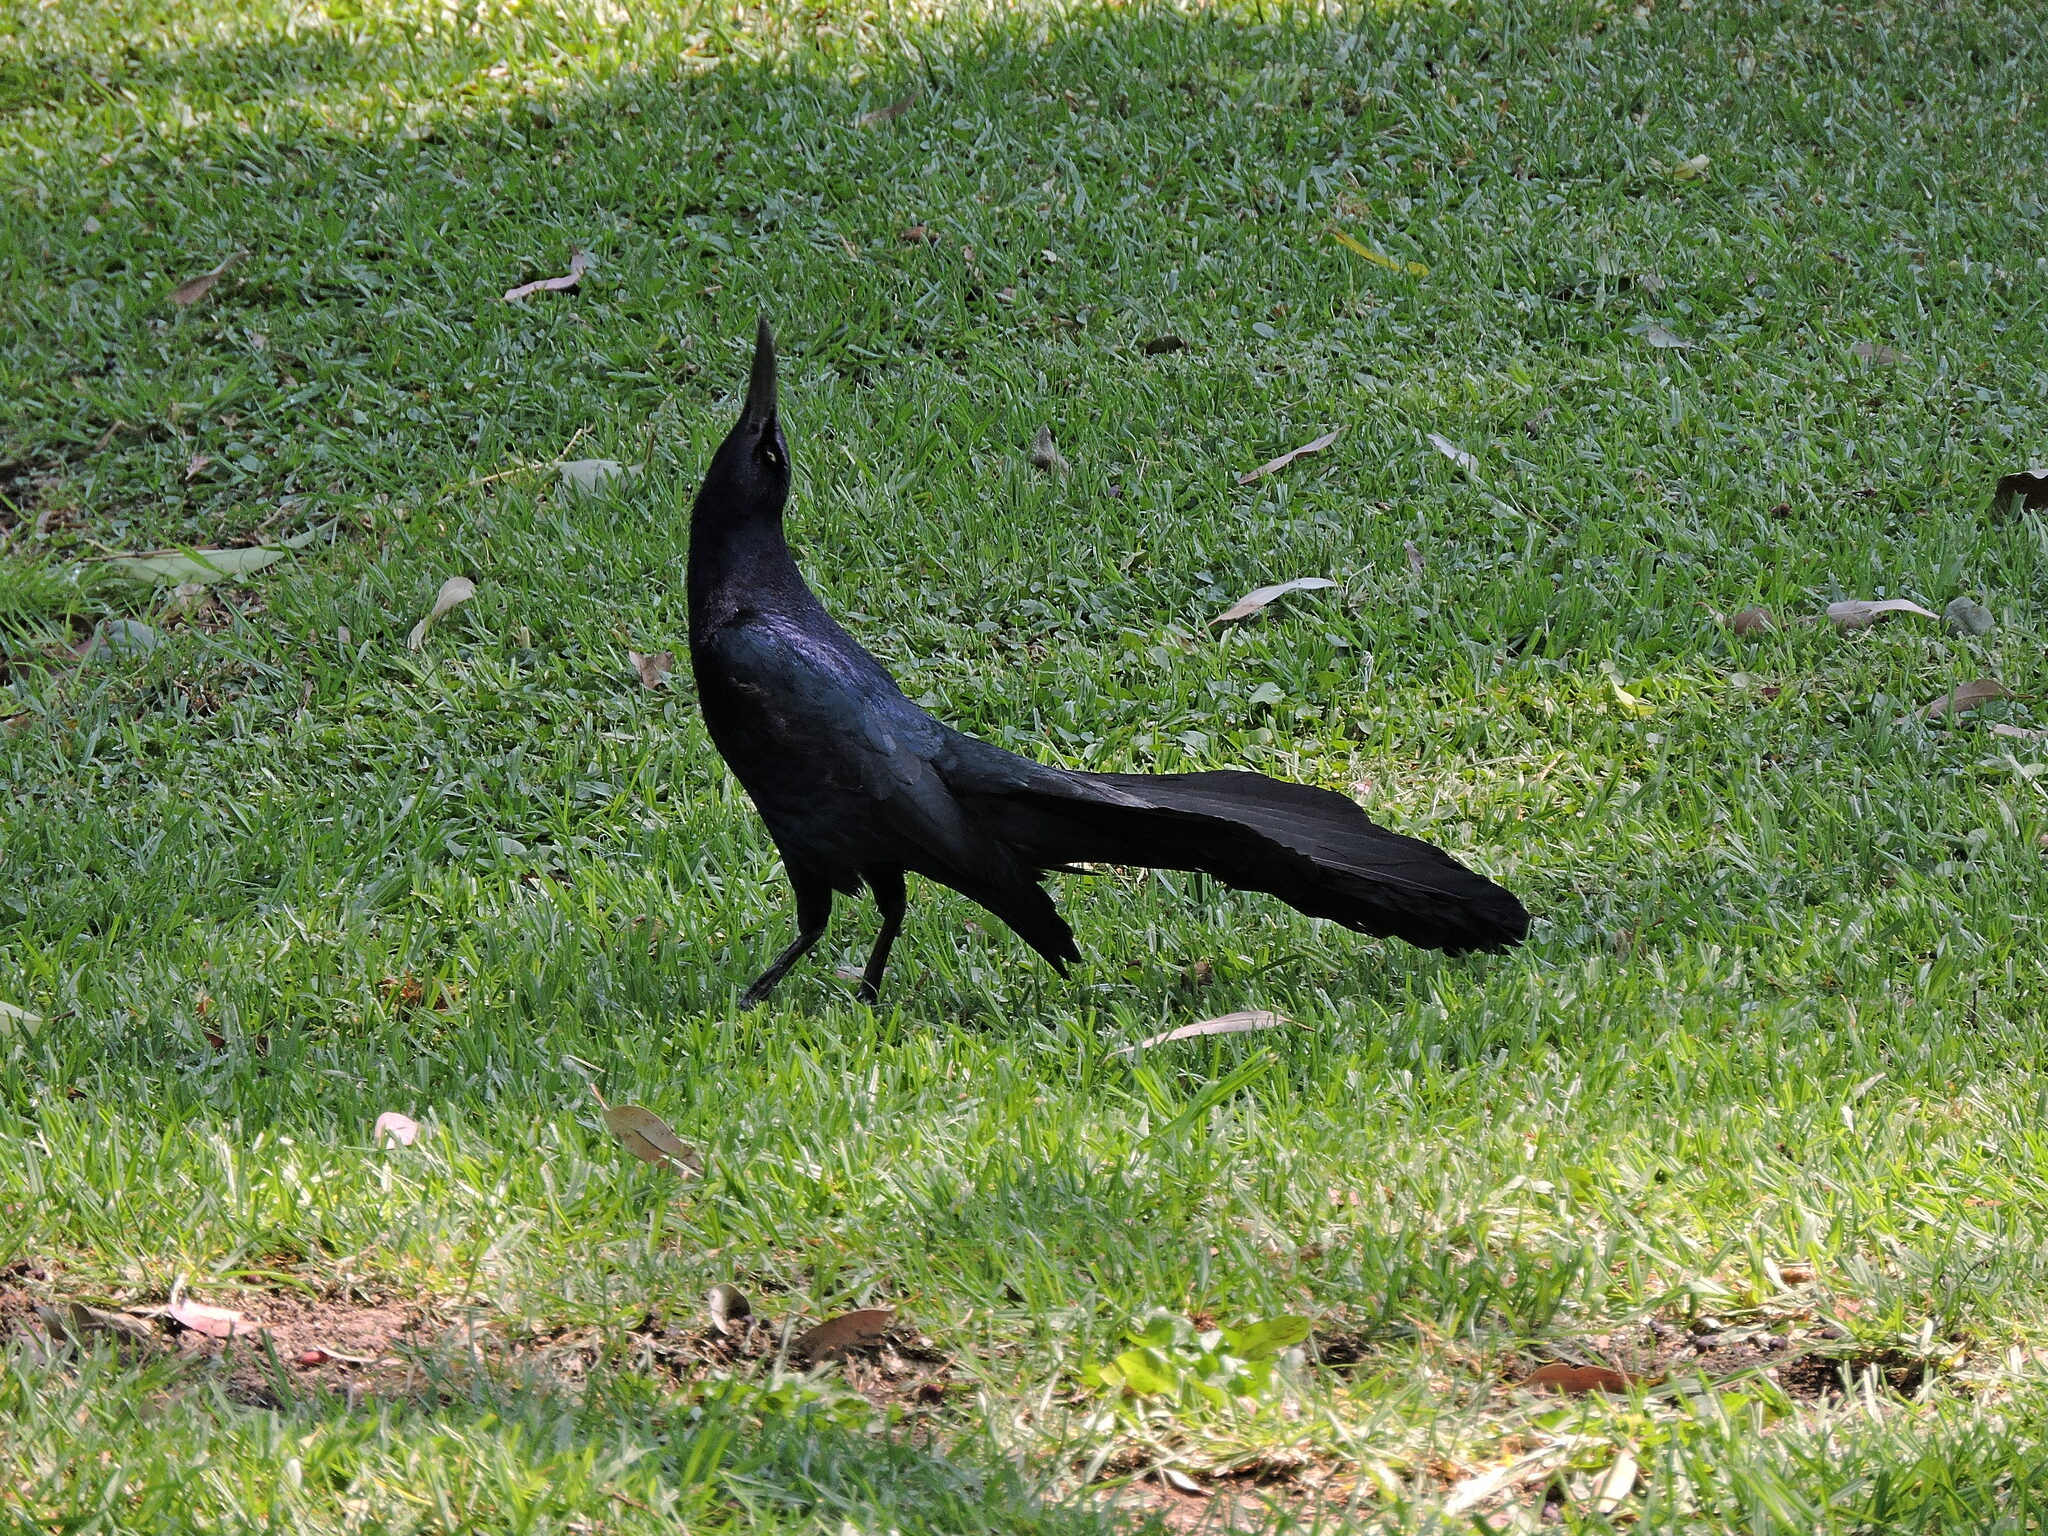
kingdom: Animalia
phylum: Chordata
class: Aves
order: Passeriformes
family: Icteridae
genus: Quiscalus
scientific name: Quiscalus mexicanus
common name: Great-tailed grackle
